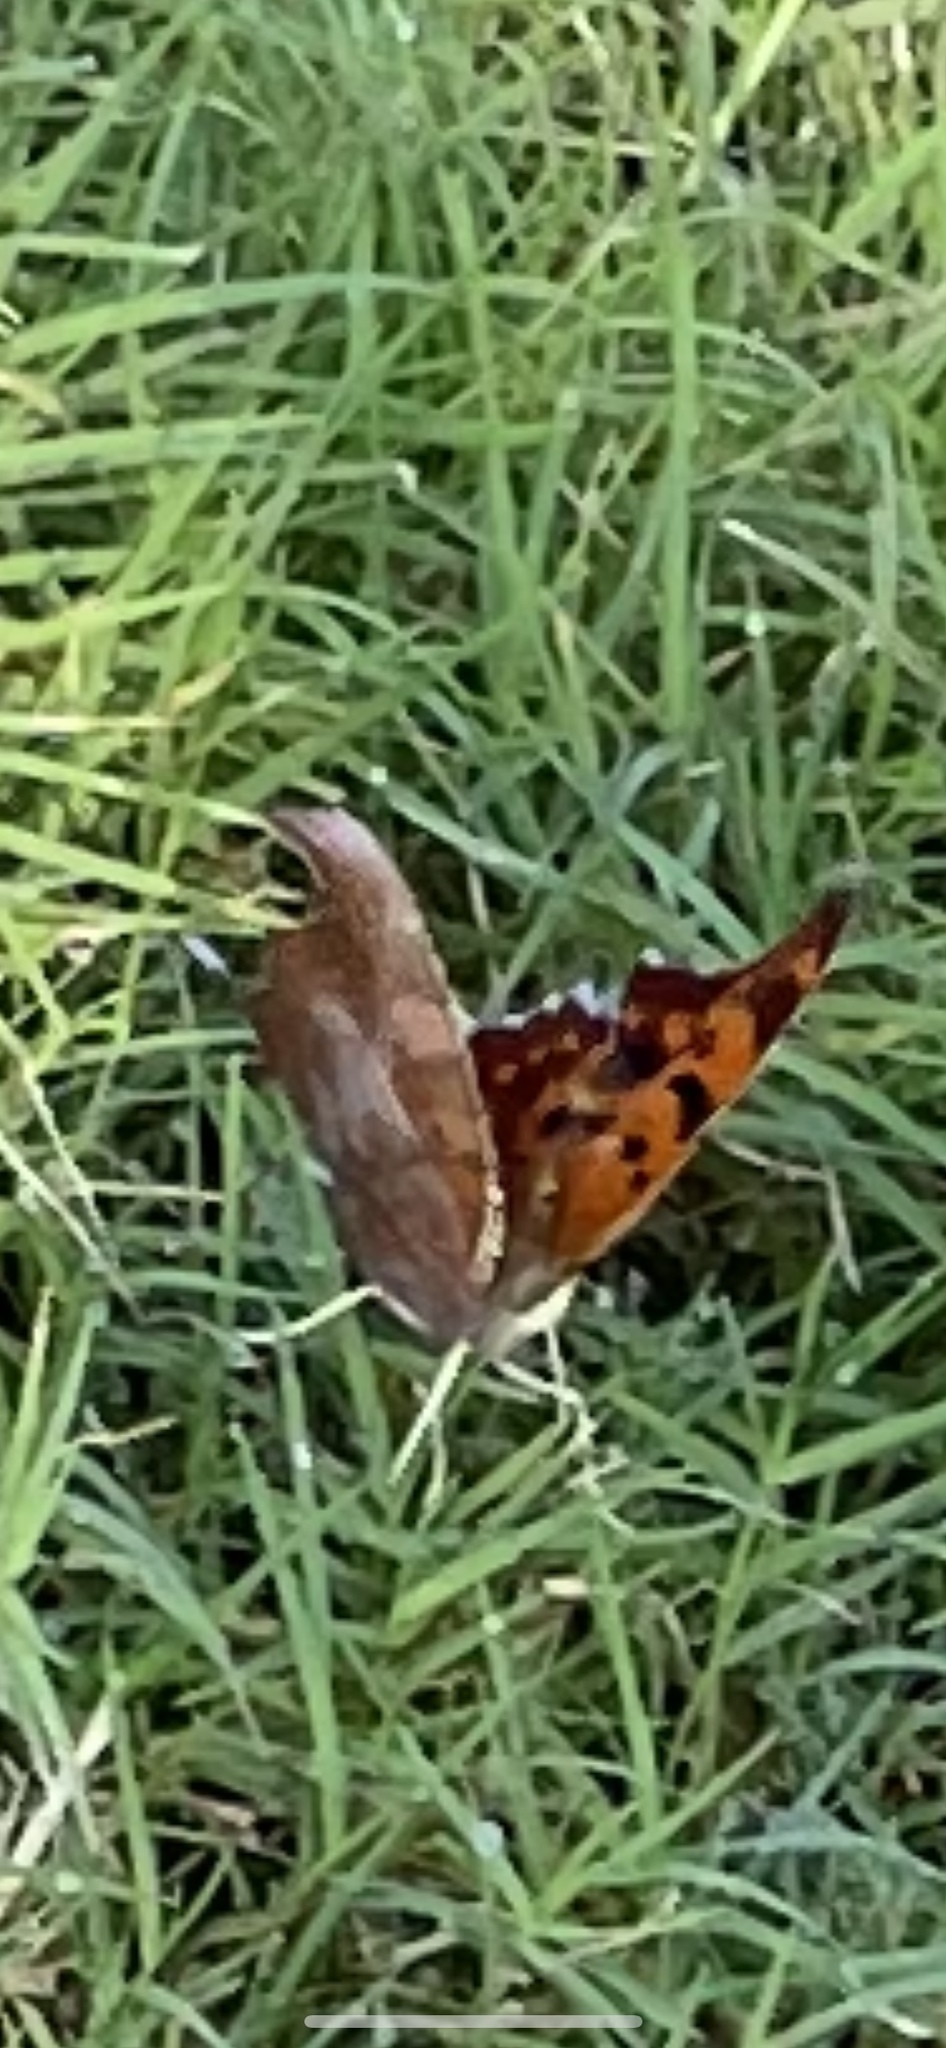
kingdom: Animalia
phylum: Arthropoda
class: Insecta
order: Lepidoptera
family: Nymphalidae
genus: Polygonia
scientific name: Polygonia interrogationis
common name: Question mark
